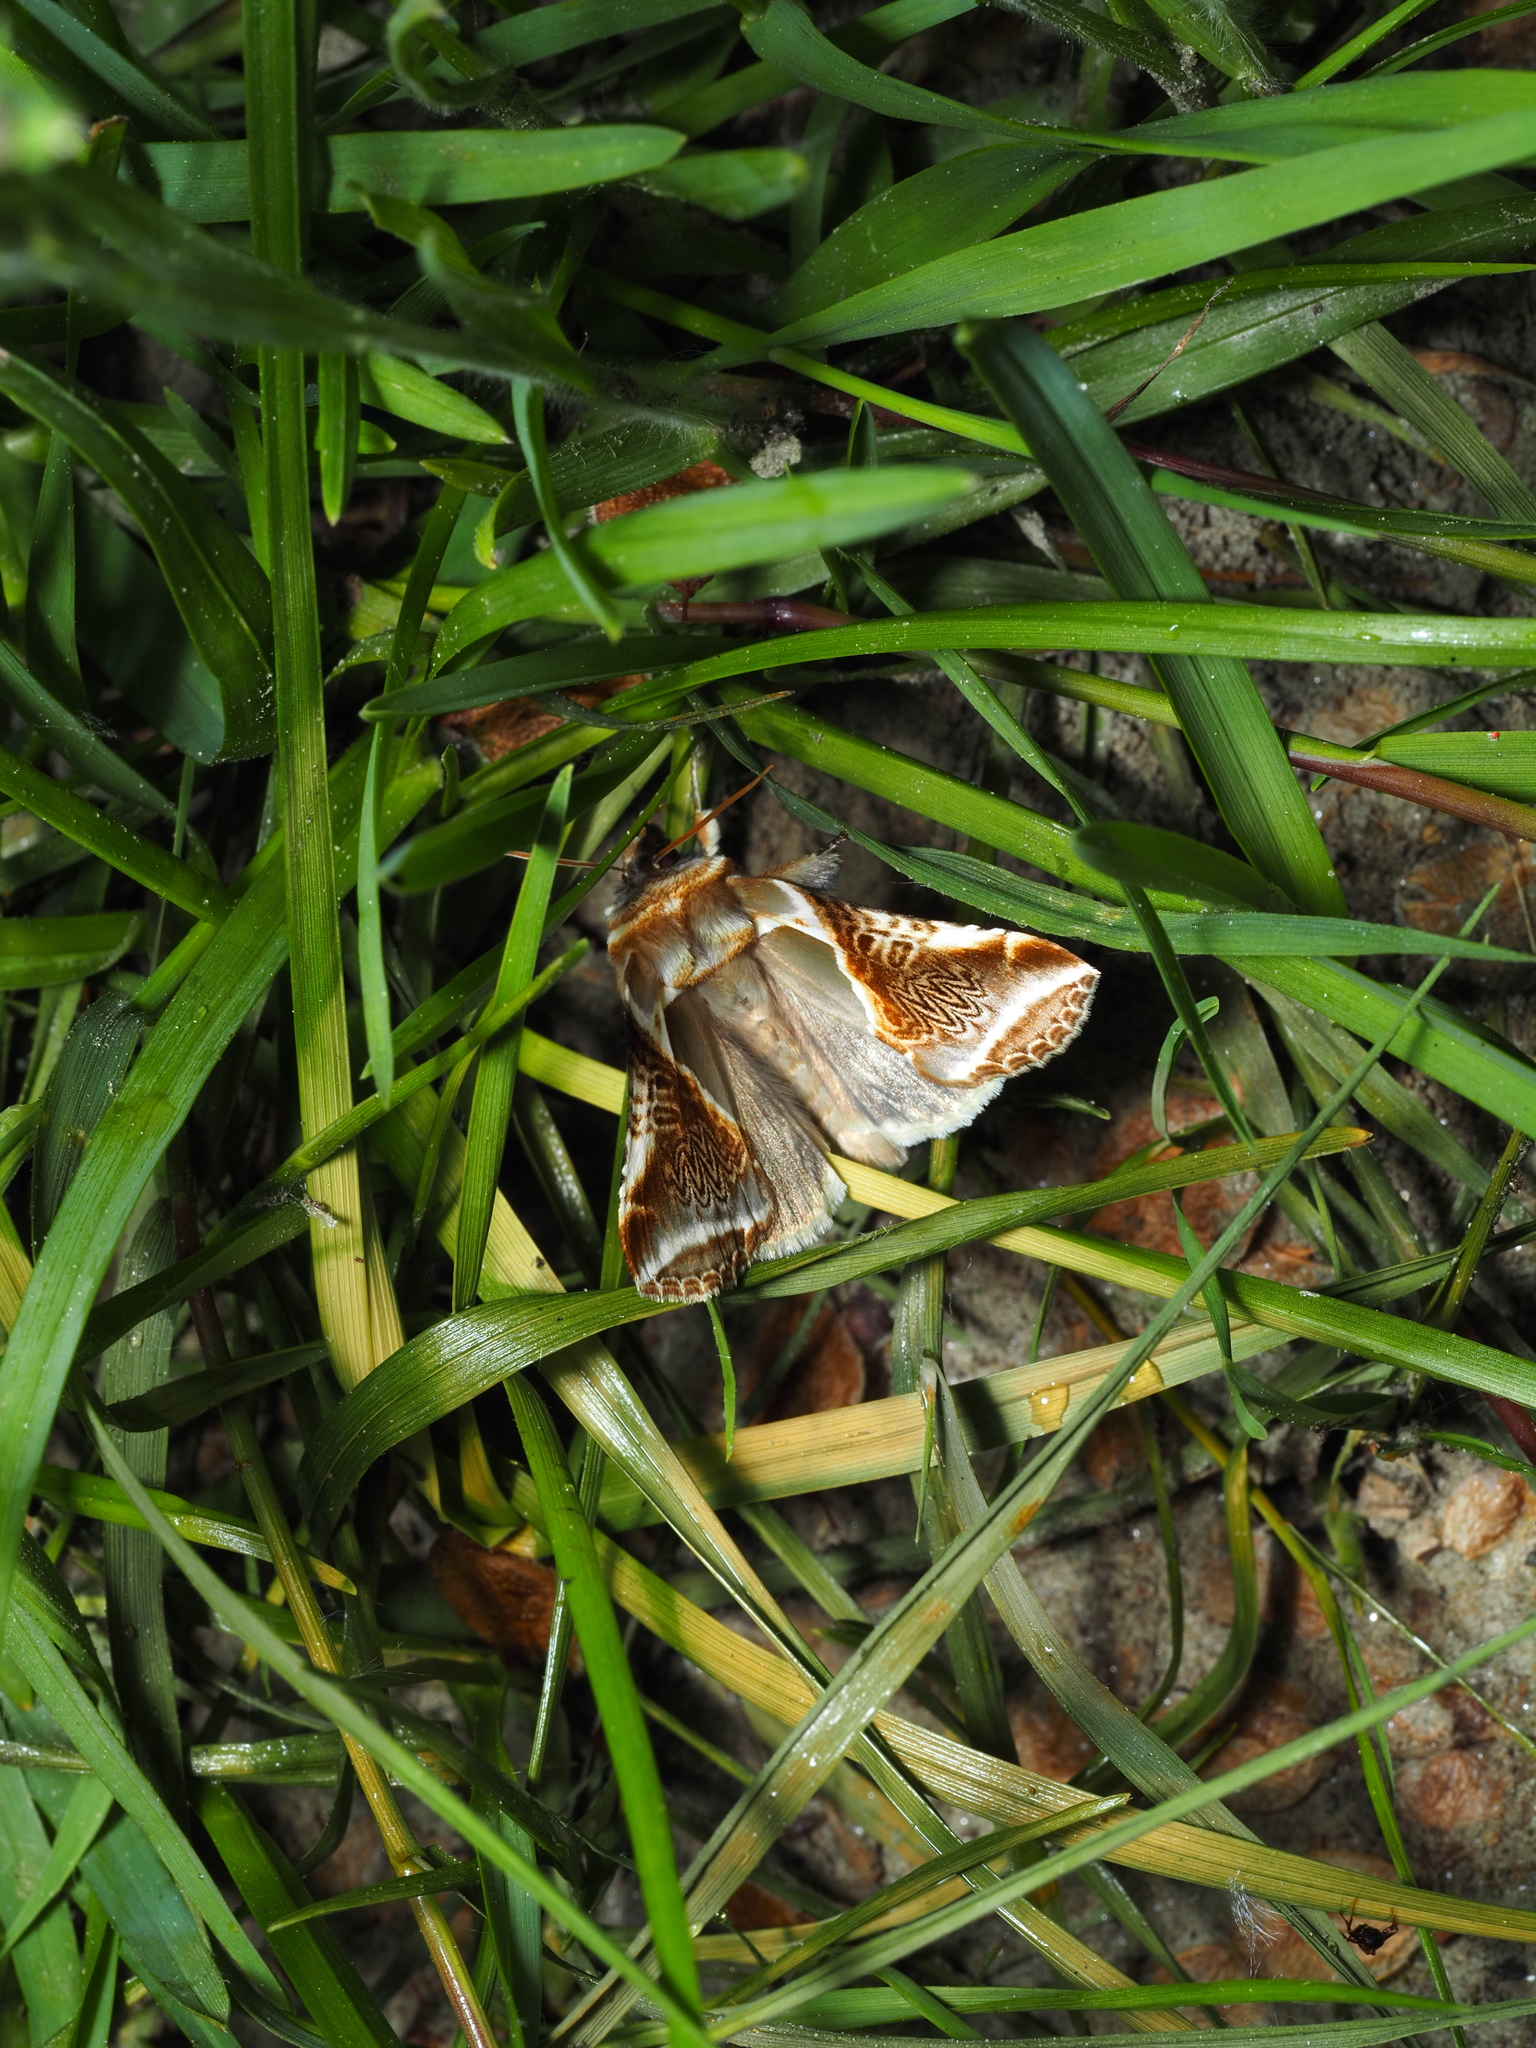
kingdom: Animalia
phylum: Arthropoda
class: Insecta
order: Lepidoptera
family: Drepanidae
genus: Habrosyne
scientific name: Habrosyne pyritoides
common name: Buff arches
